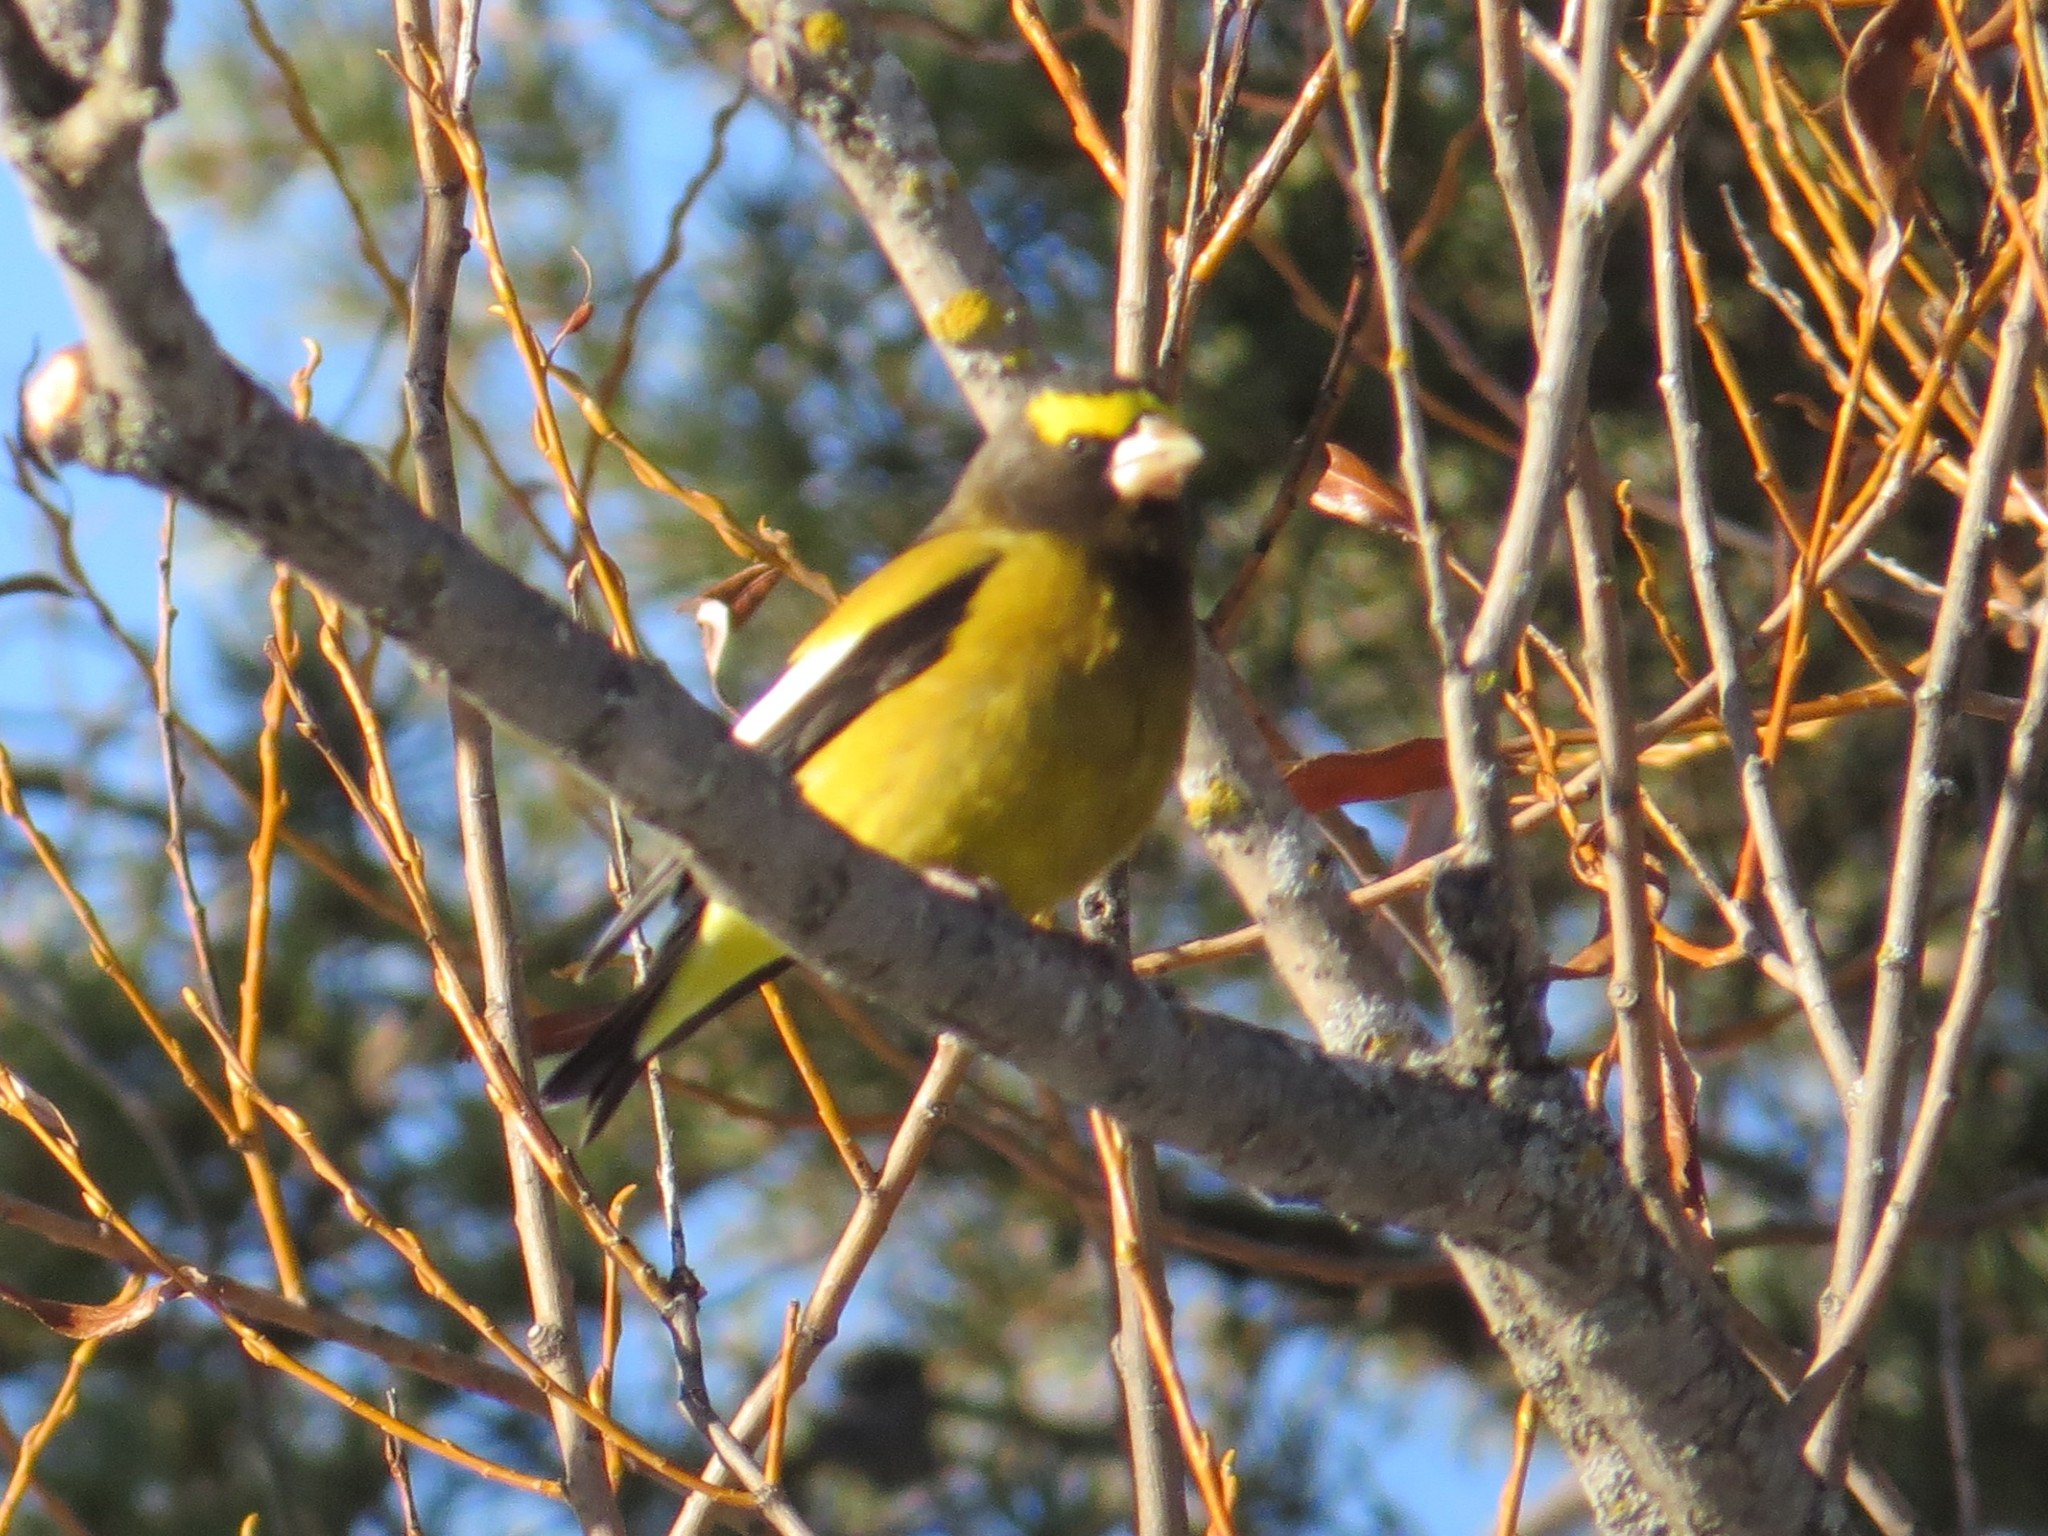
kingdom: Animalia
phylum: Chordata
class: Aves
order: Passeriformes
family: Fringillidae
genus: Hesperiphona
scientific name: Hesperiphona vespertina
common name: Evening grosbeak
